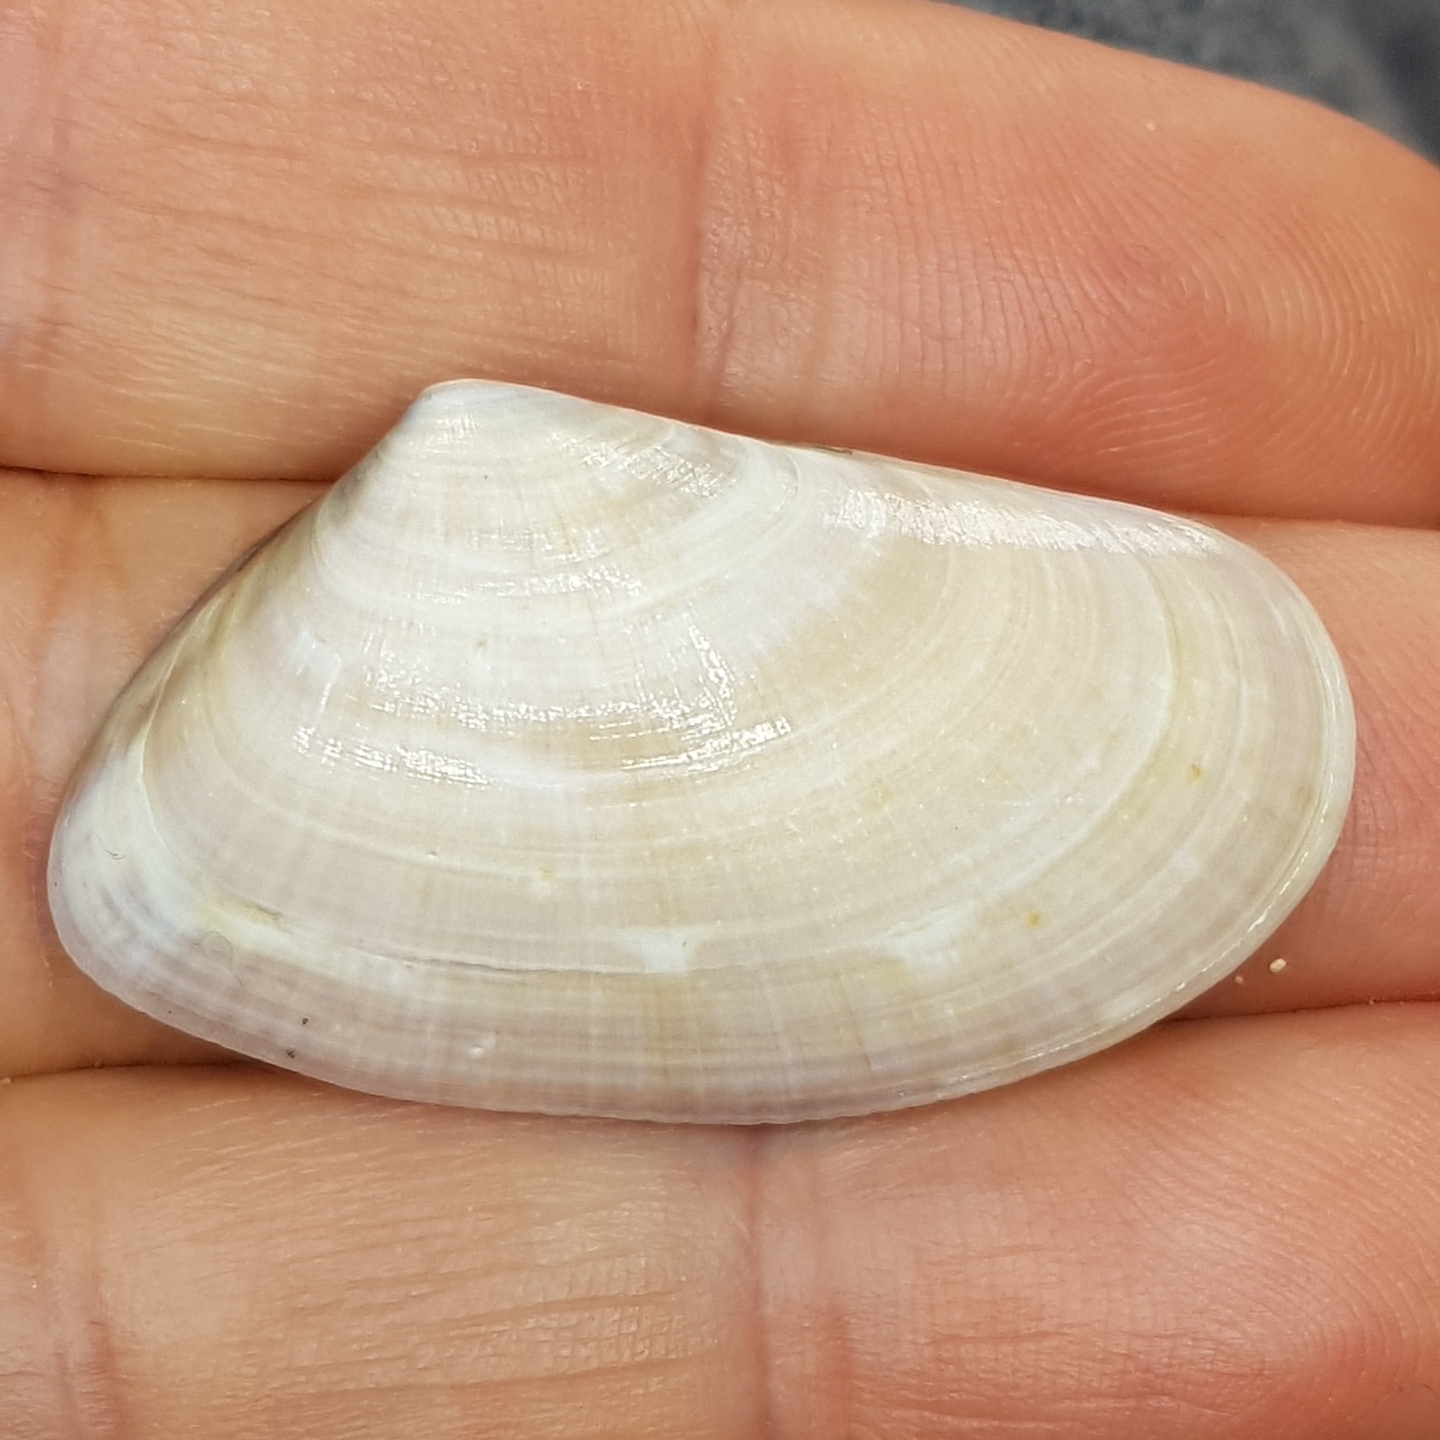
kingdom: Animalia
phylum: Mollusca
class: Bivalvia
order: Cardiida
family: Donacidae
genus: Donax
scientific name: Donax trunculus
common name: Truncate donax
